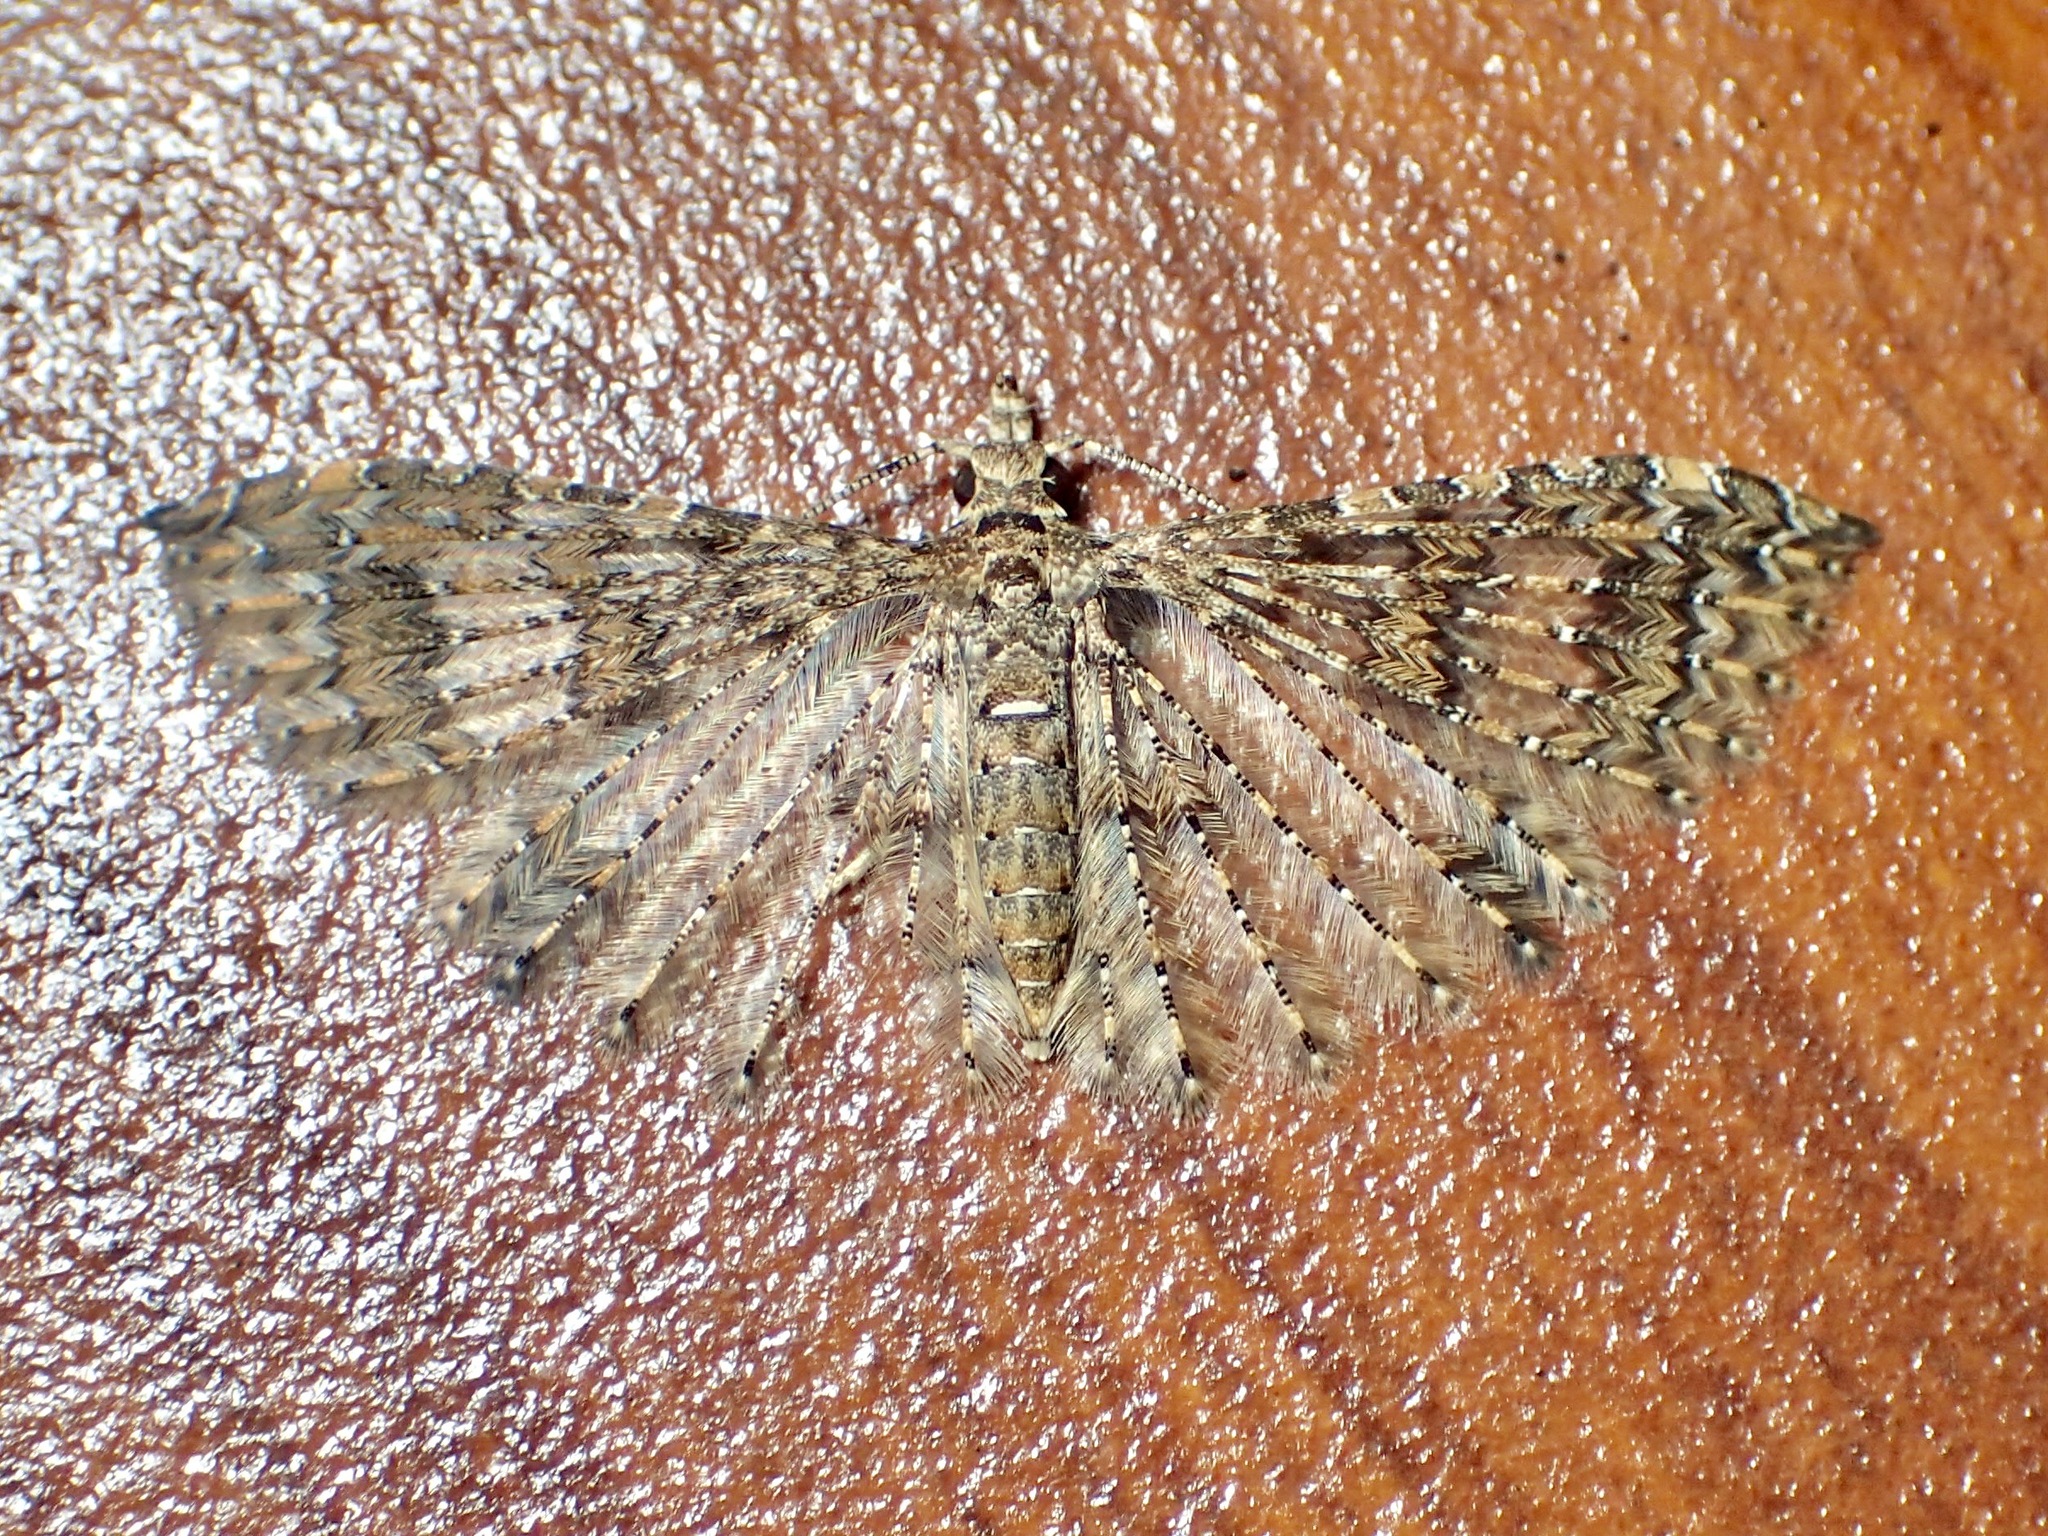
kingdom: Animalia
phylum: Arthropoda
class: Insecta
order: Lepidoptera
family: Alucitidae
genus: Alucita
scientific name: Alucita phricodes
